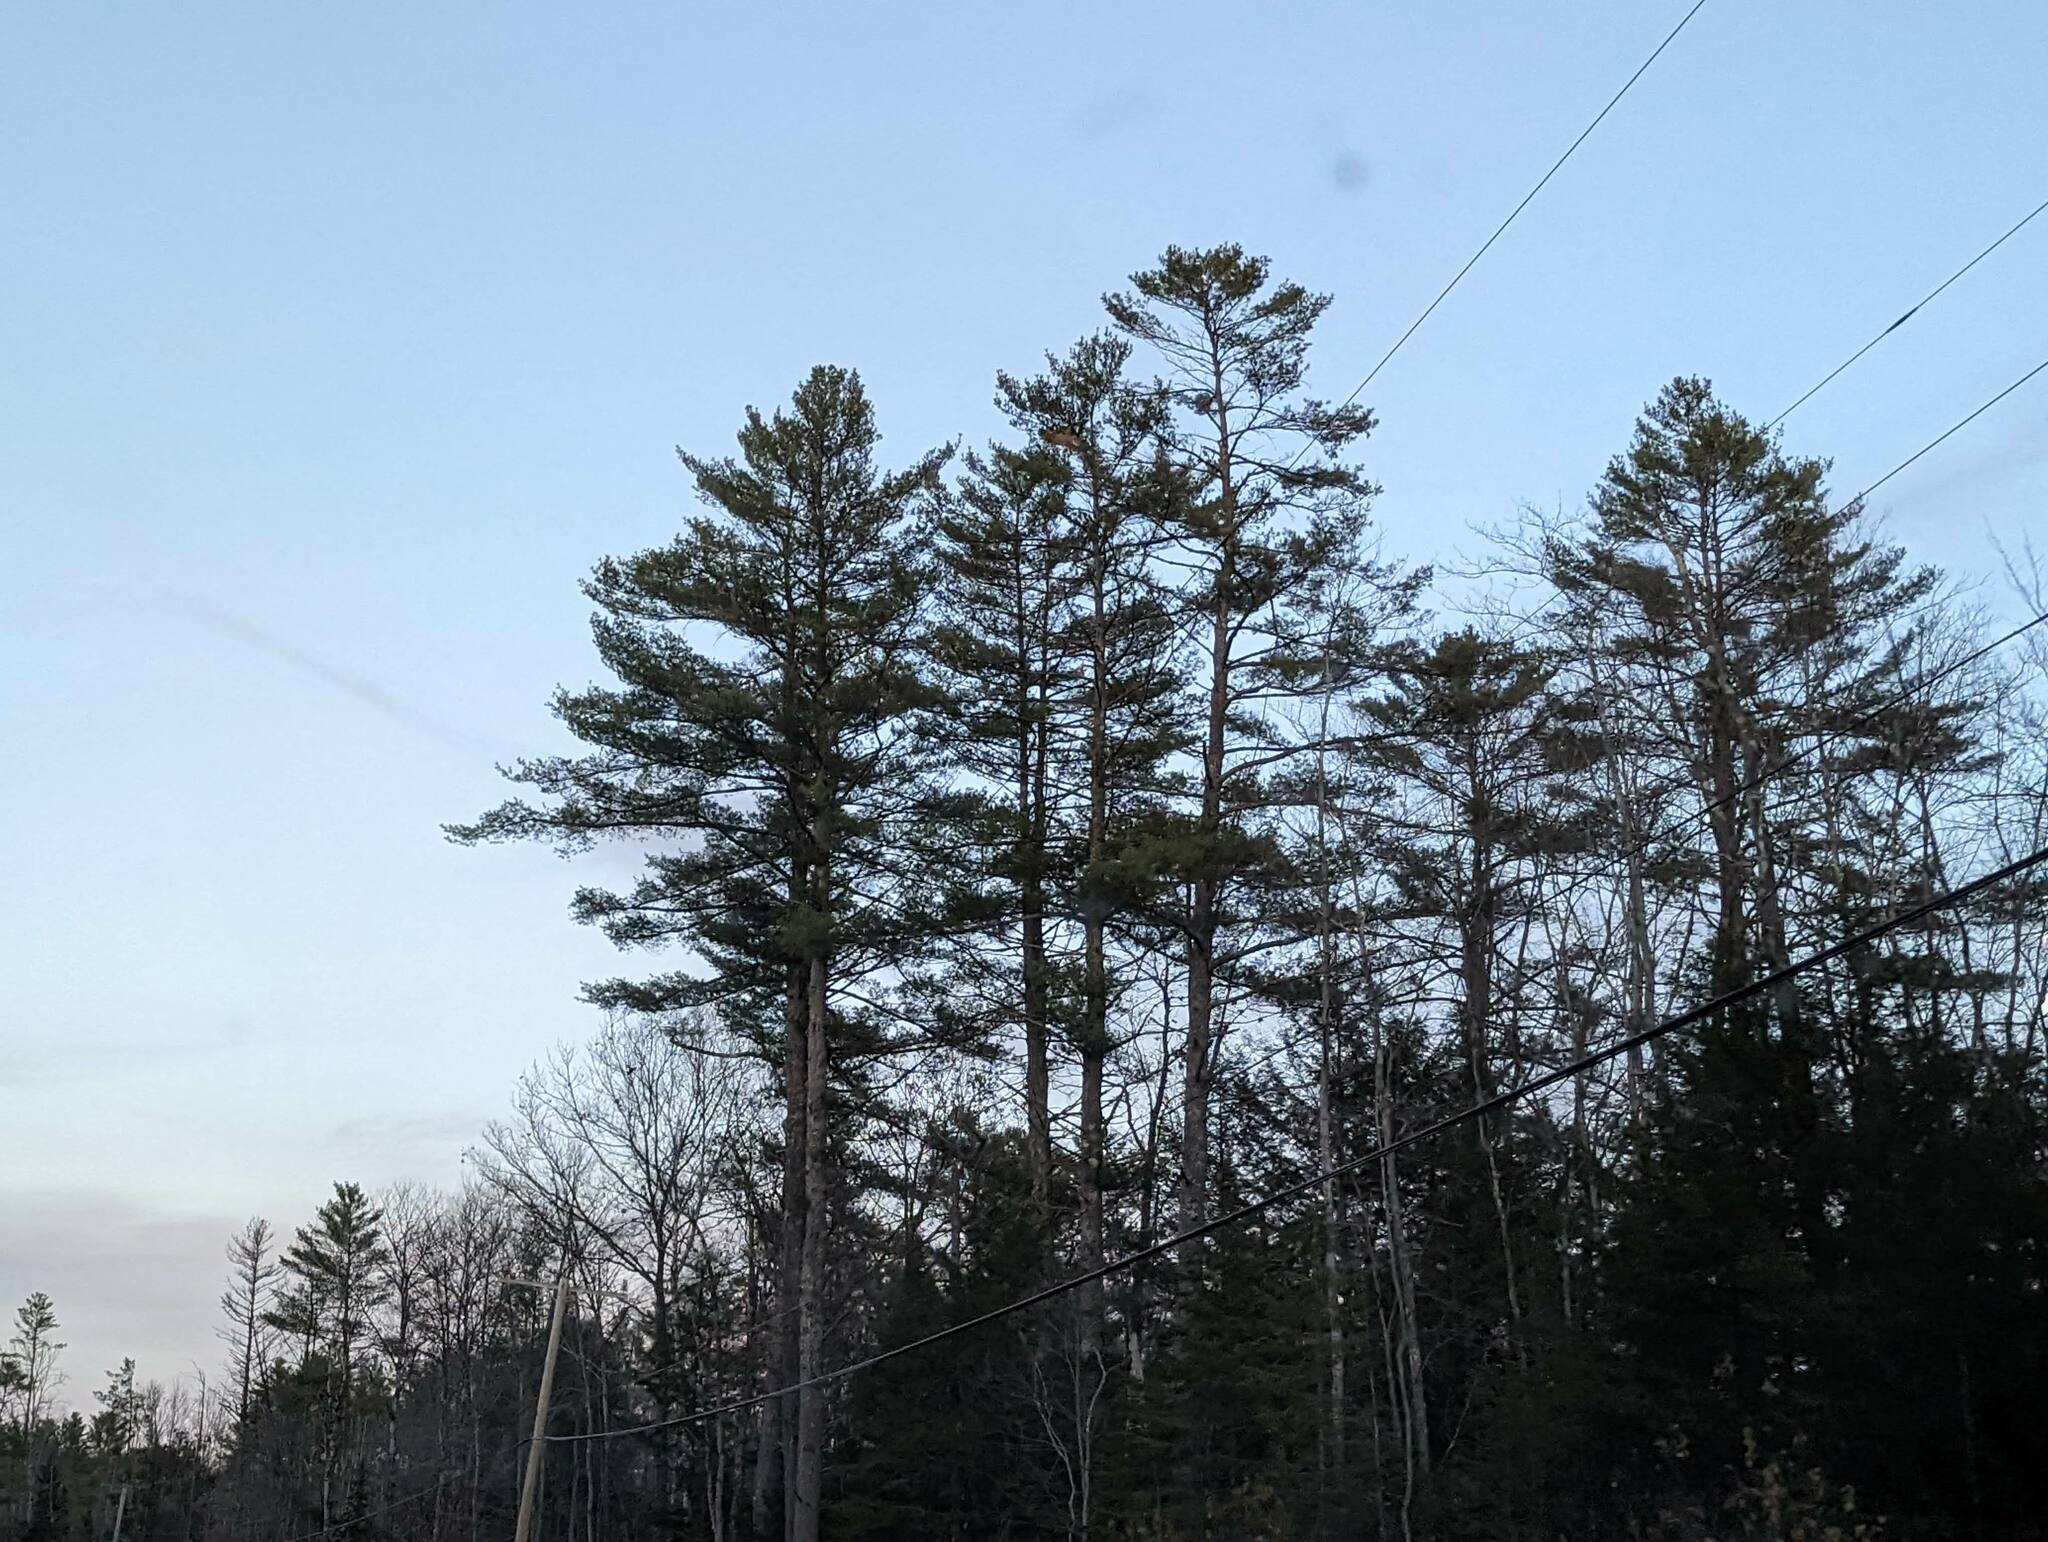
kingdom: Plantae
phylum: Tracheophyta
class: Pinopsida
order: Pinales
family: Pinaceae
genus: Pinus
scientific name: Pinus strobus
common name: Weymouth pine
